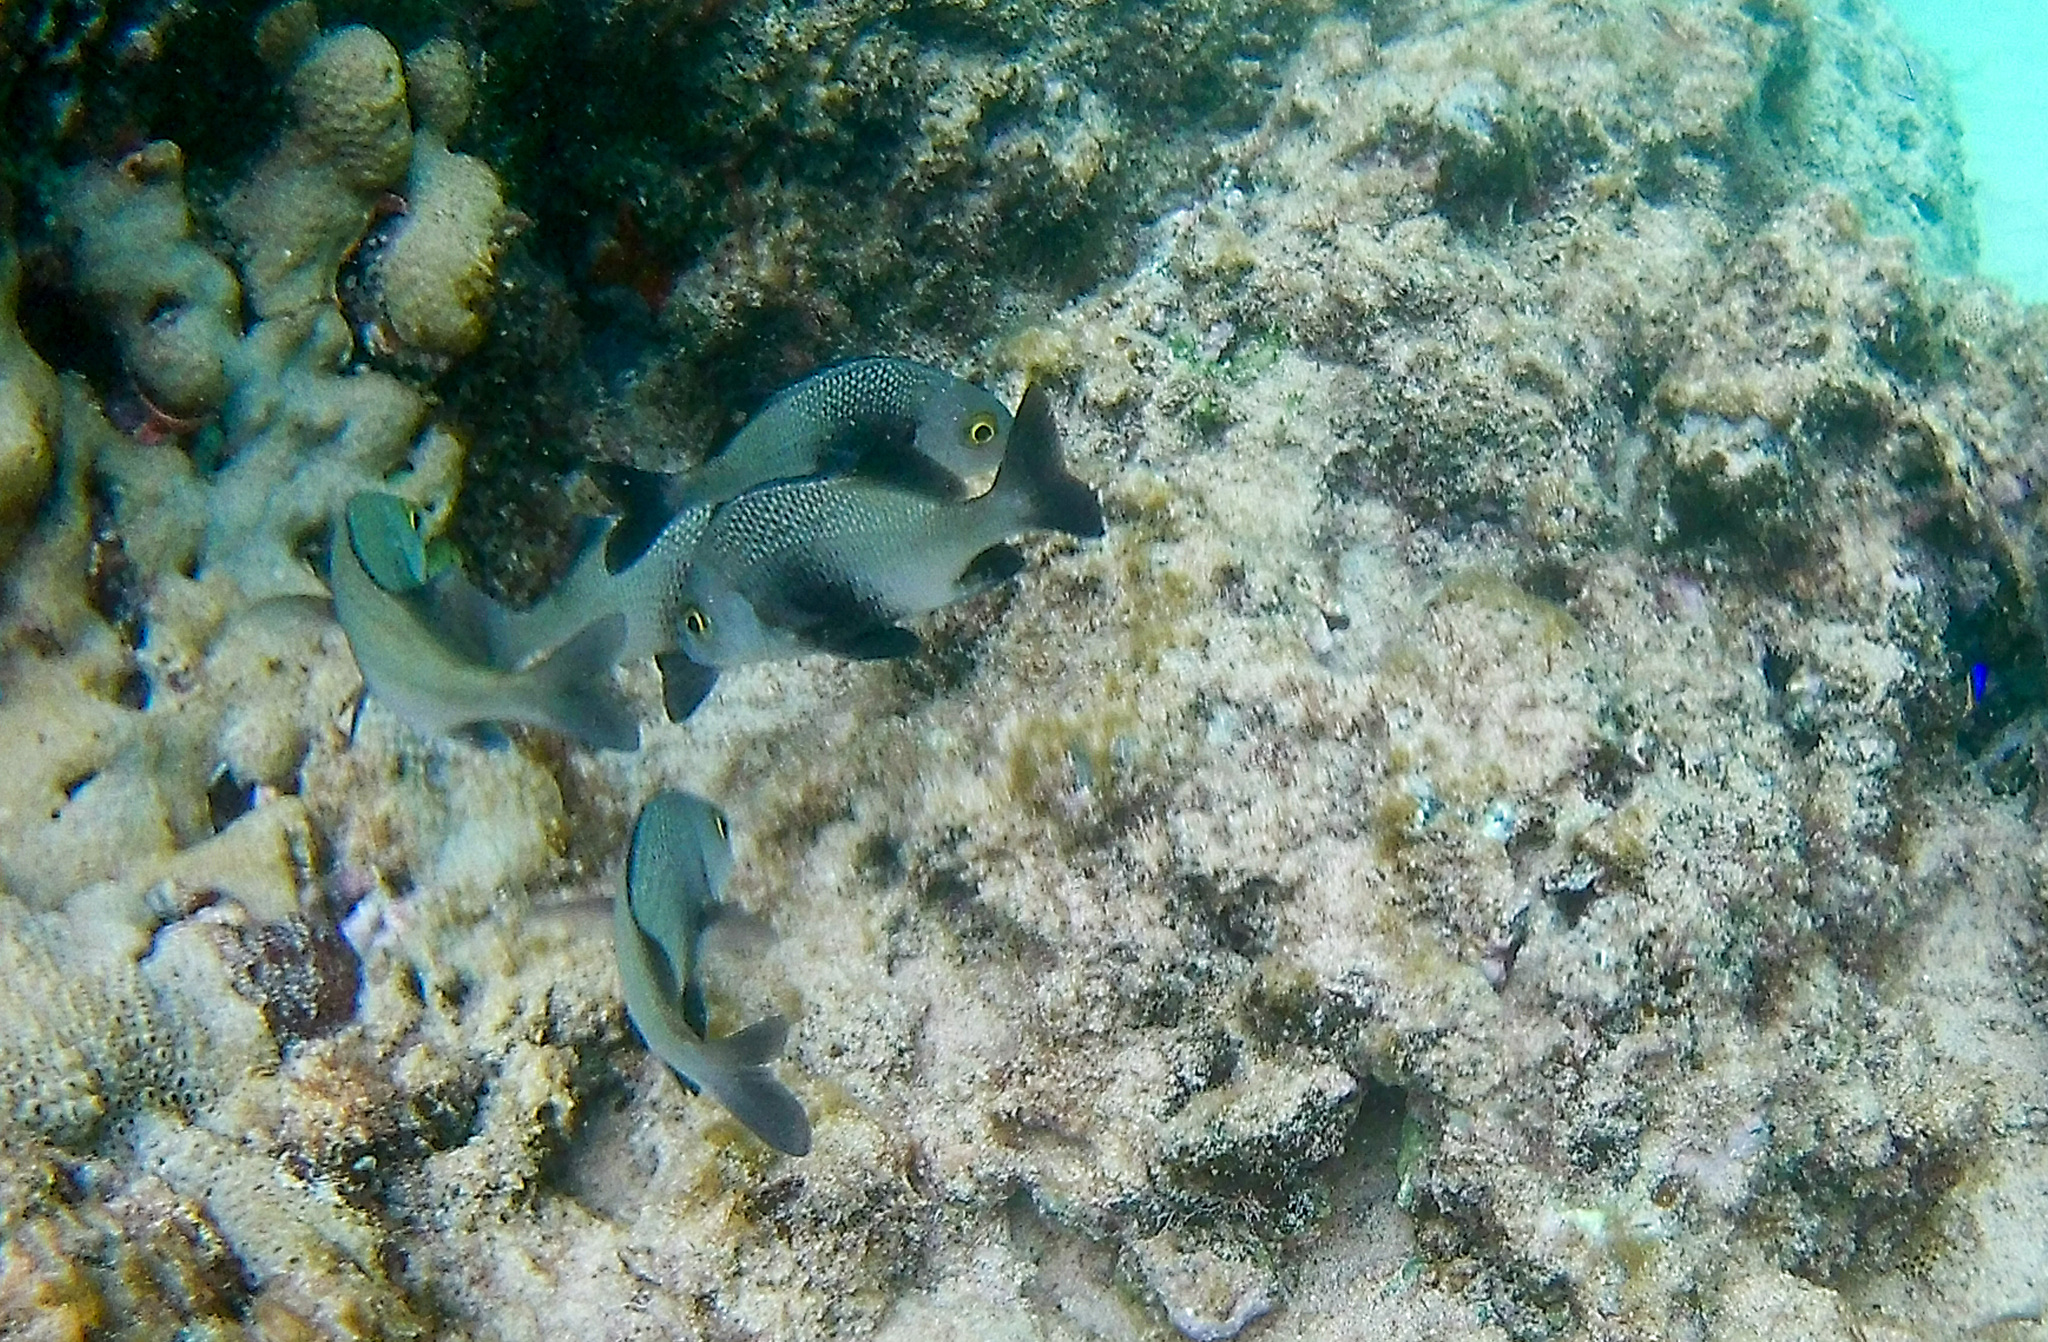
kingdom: Animalia
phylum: Chordata
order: Perciformes
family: Haemulidae
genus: Anisotremus
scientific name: Anisotremus surinamensis
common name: Black margate
